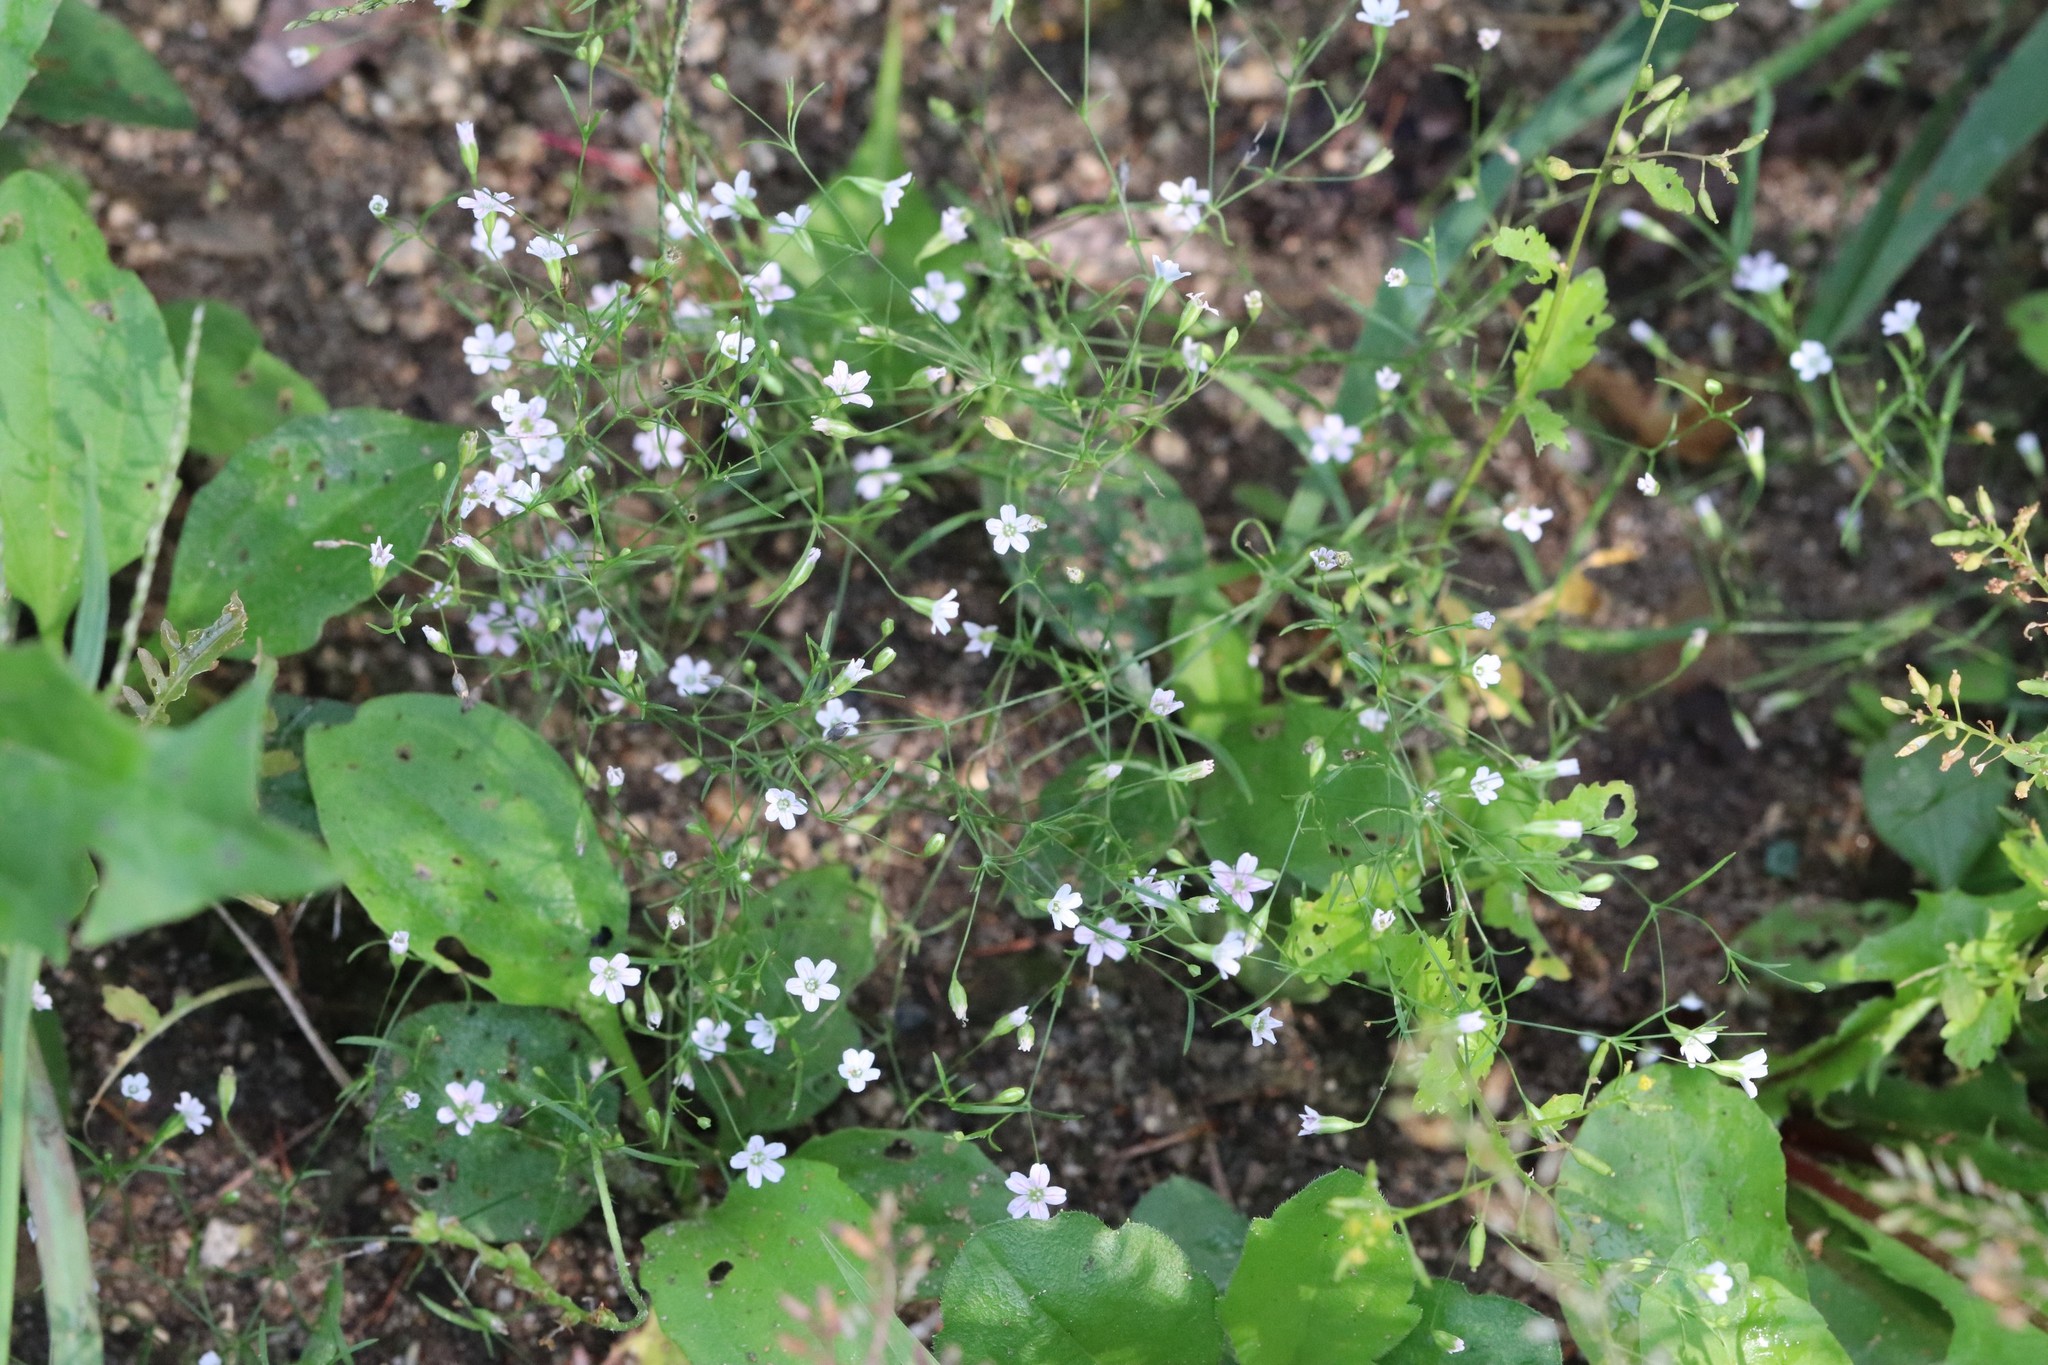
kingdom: Plantae
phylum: Tracheophyta
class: Magnoliopsida
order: Caryophyllales
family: Caryophyllaceae
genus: Psammophiliella
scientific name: Psammophiliella muralis
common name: Cushion baby's-breath
